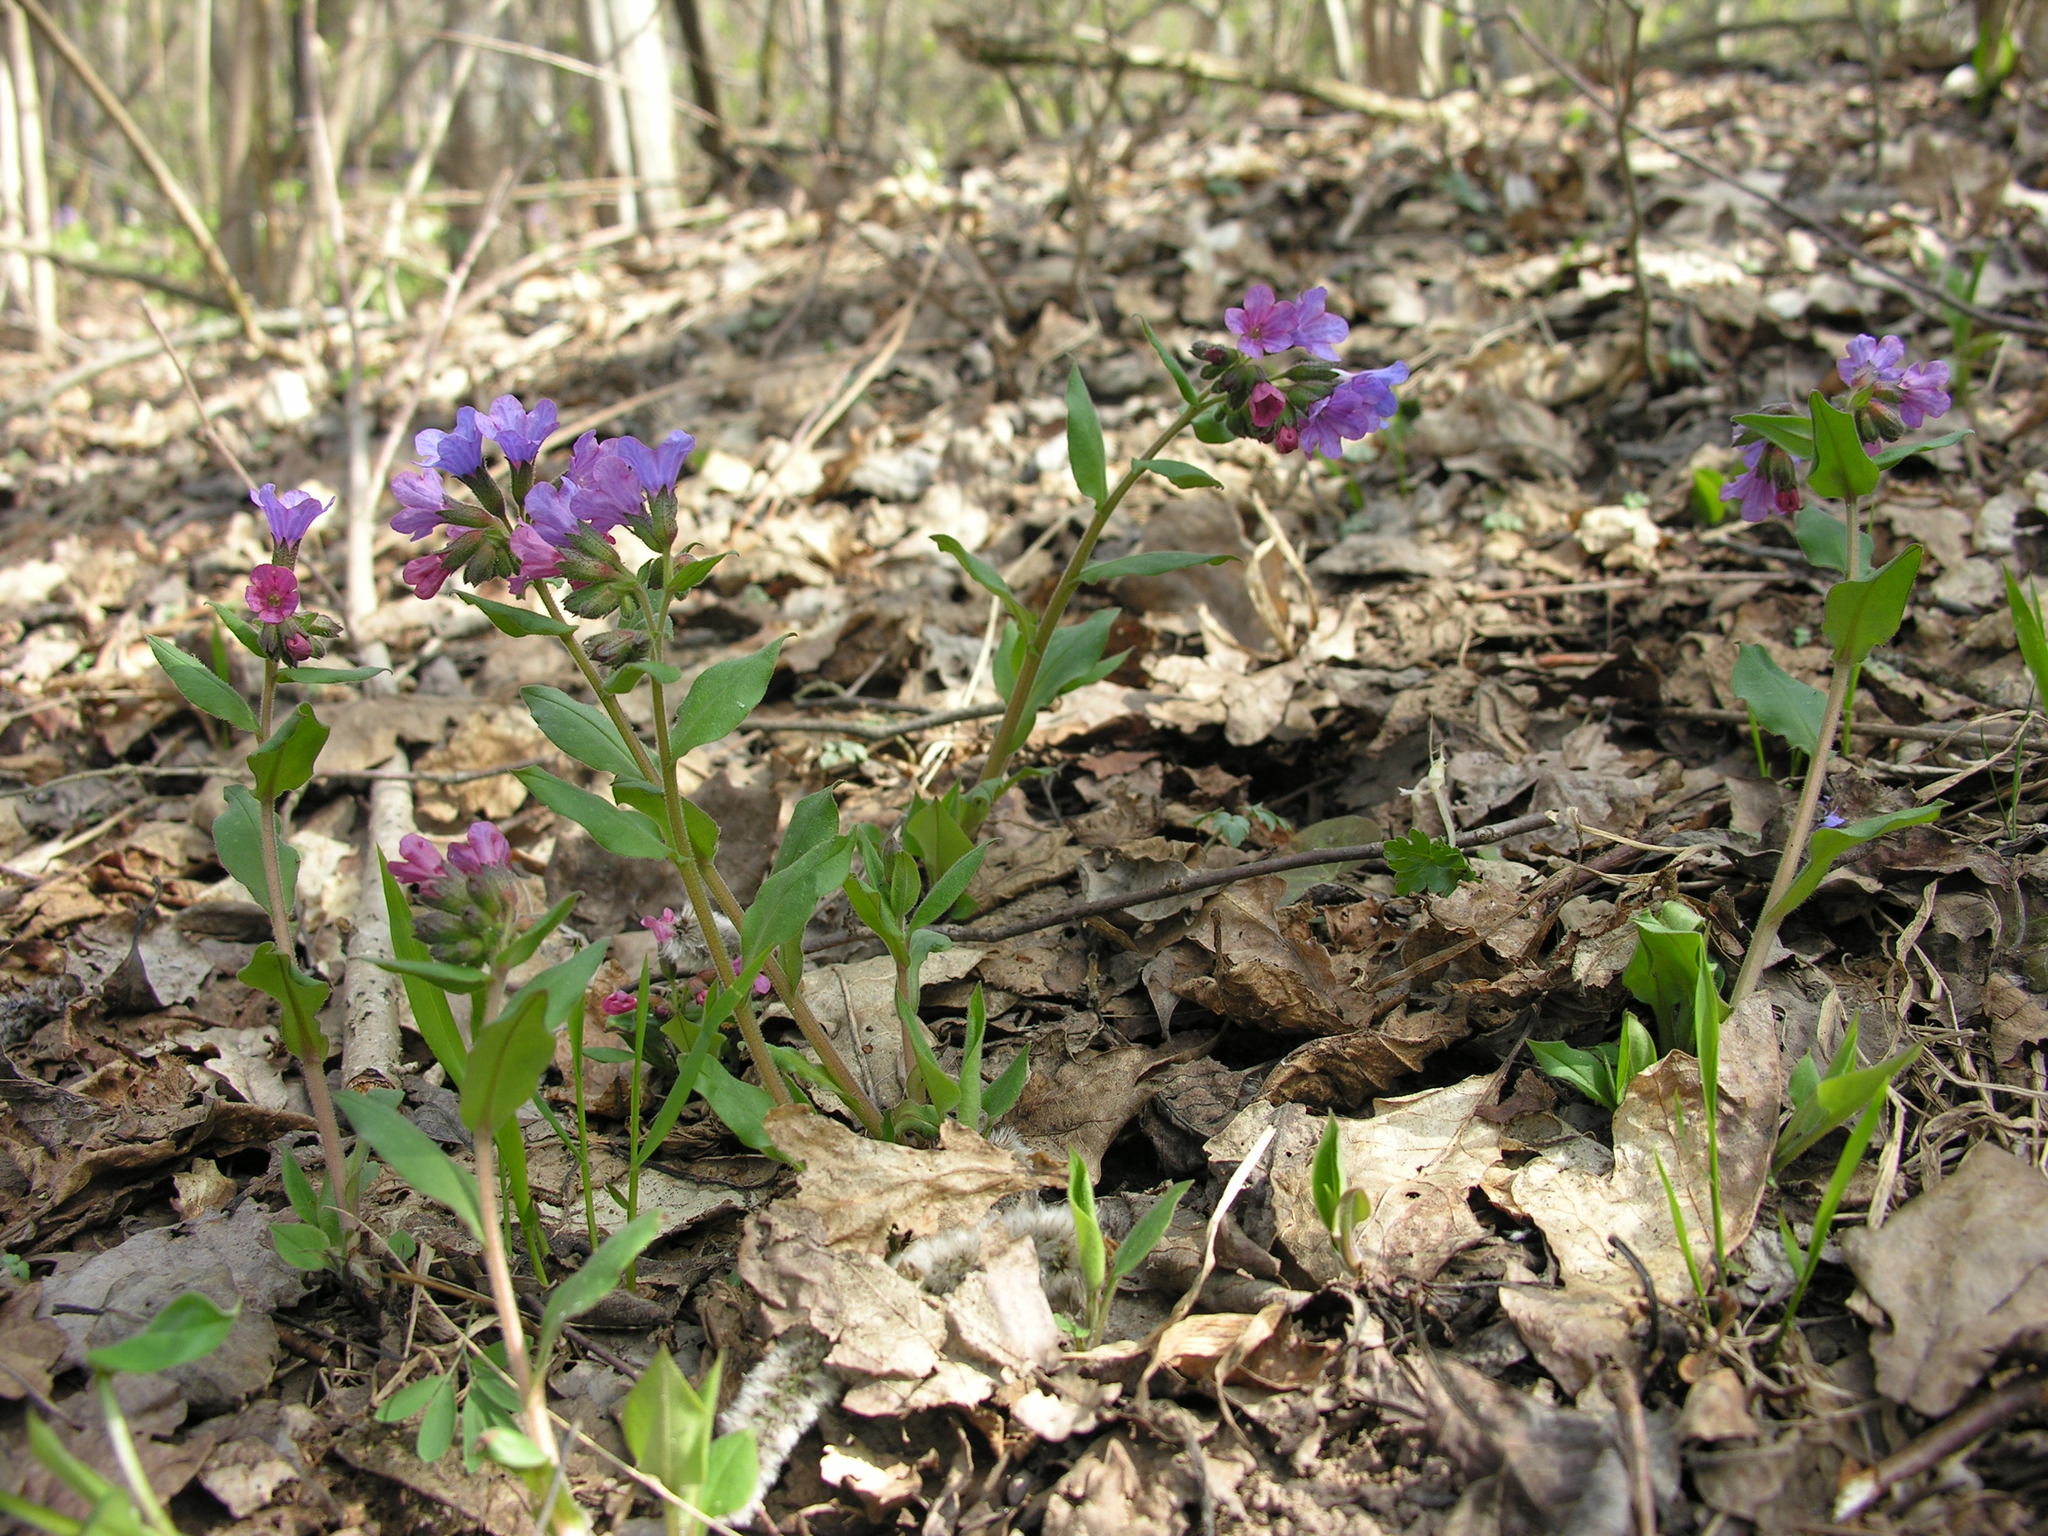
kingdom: Plantae
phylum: Tracheophyta
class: Magnoliopsida
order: Boraginales
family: Boraginaceae
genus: Pulmonaria
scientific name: Pulmonaria obscura
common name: Suffolk lungwort
